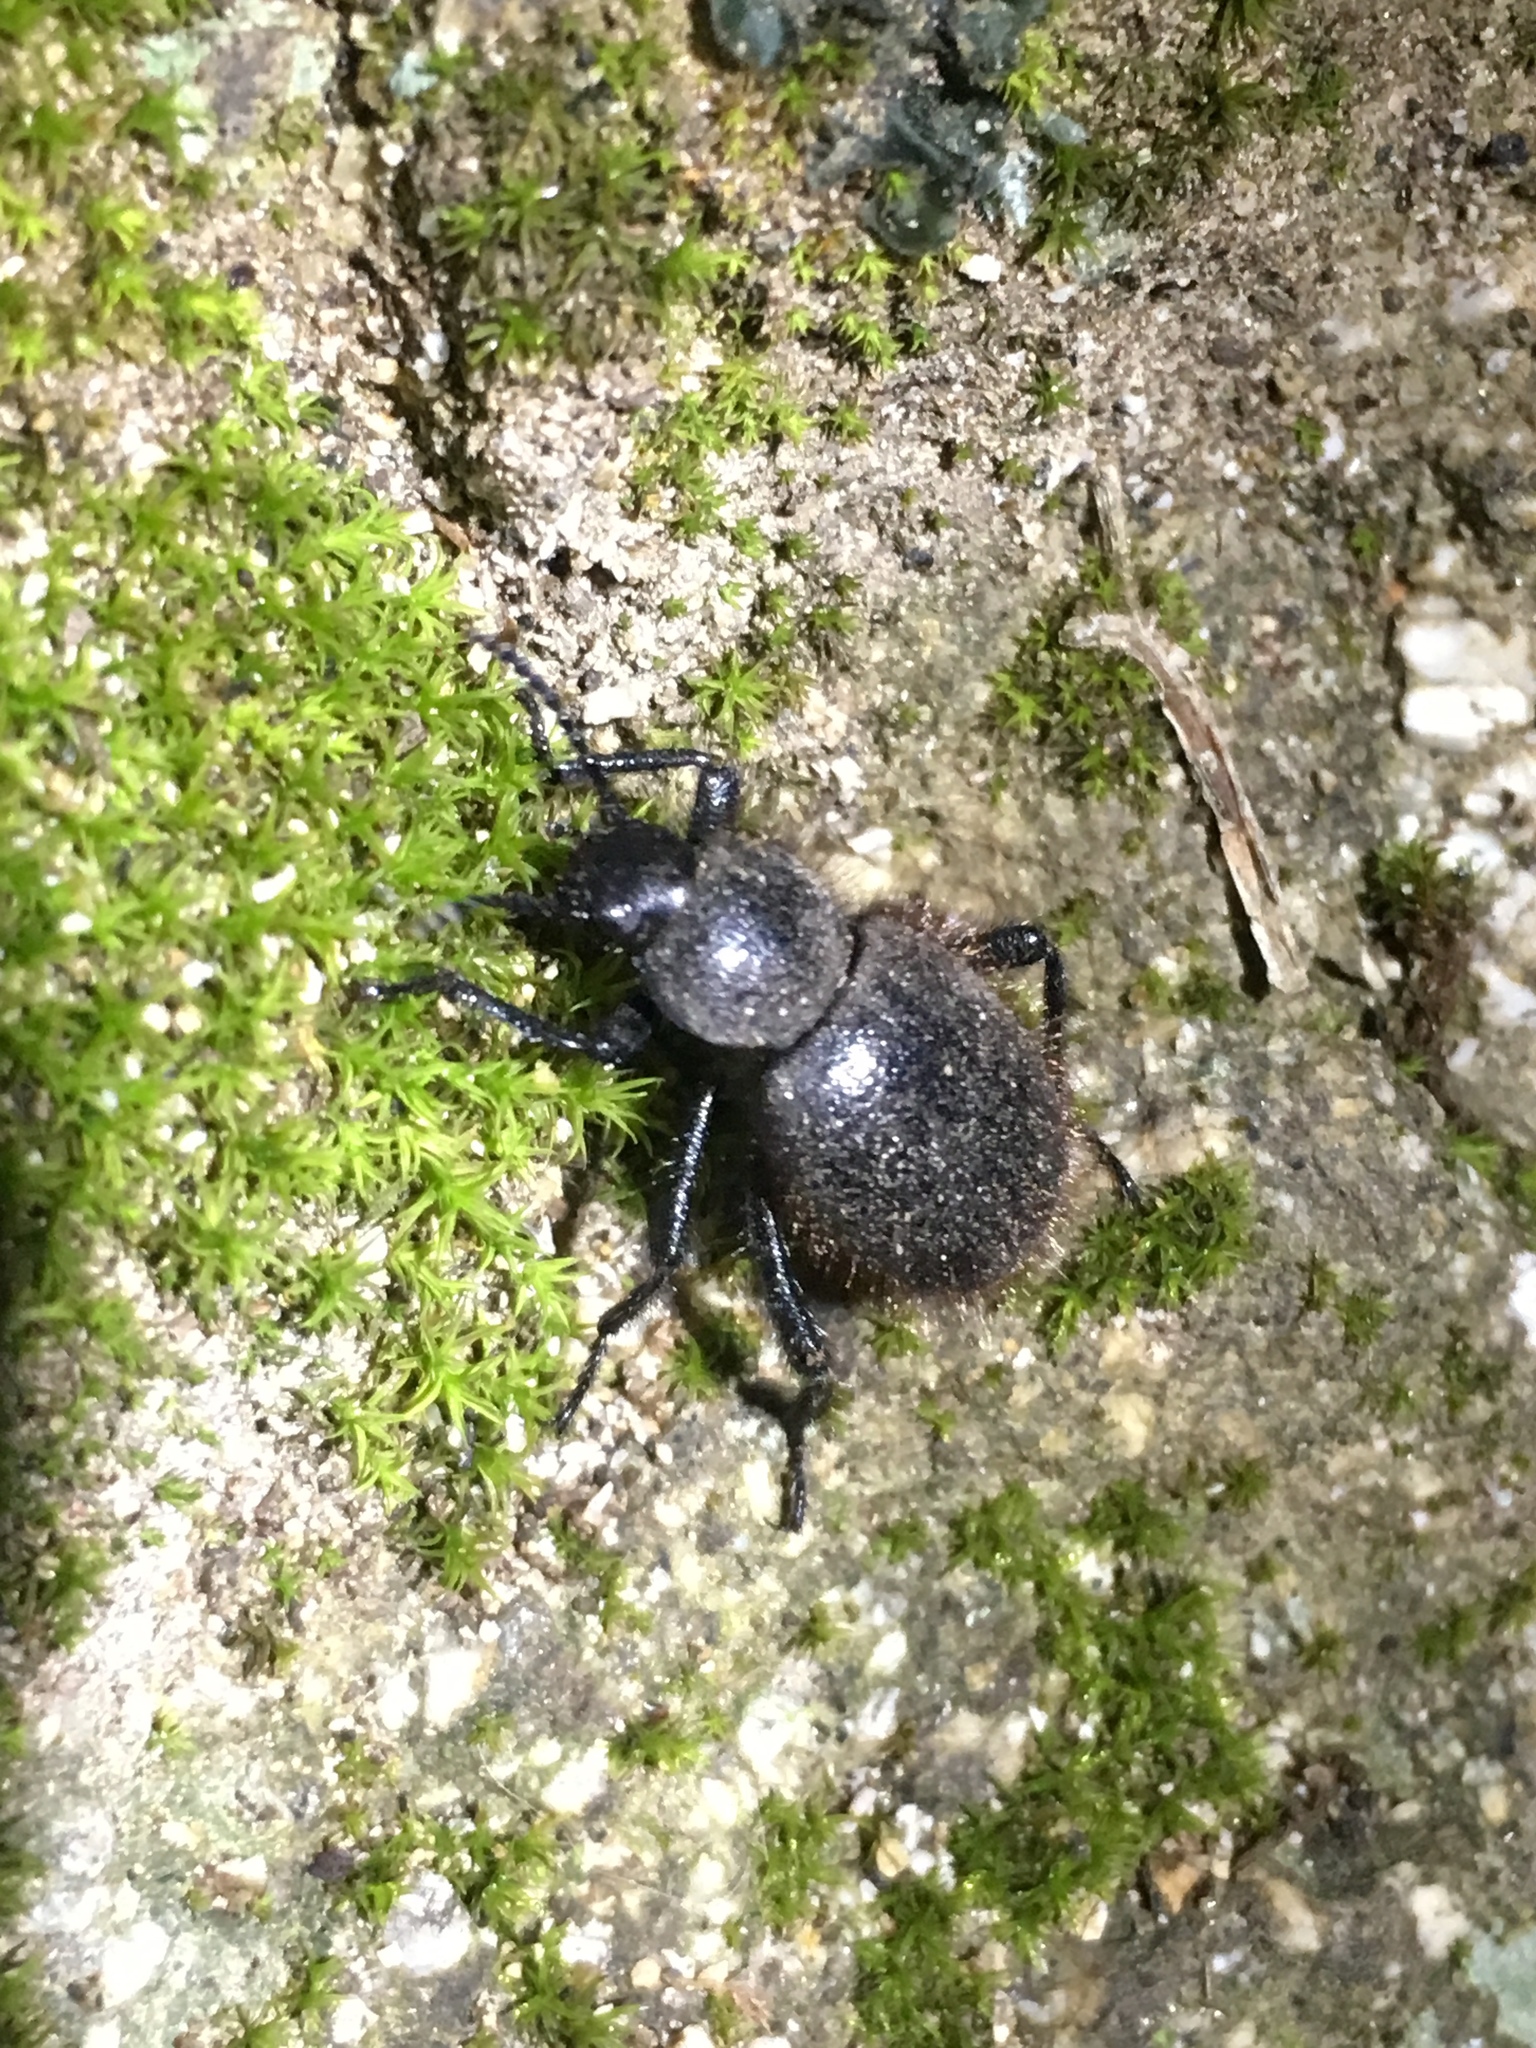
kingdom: Animalia
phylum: Arthropoda
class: Insecta
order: Coleoptera
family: Tenebrionidae
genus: Eleodes
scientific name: Eleodes osculans
